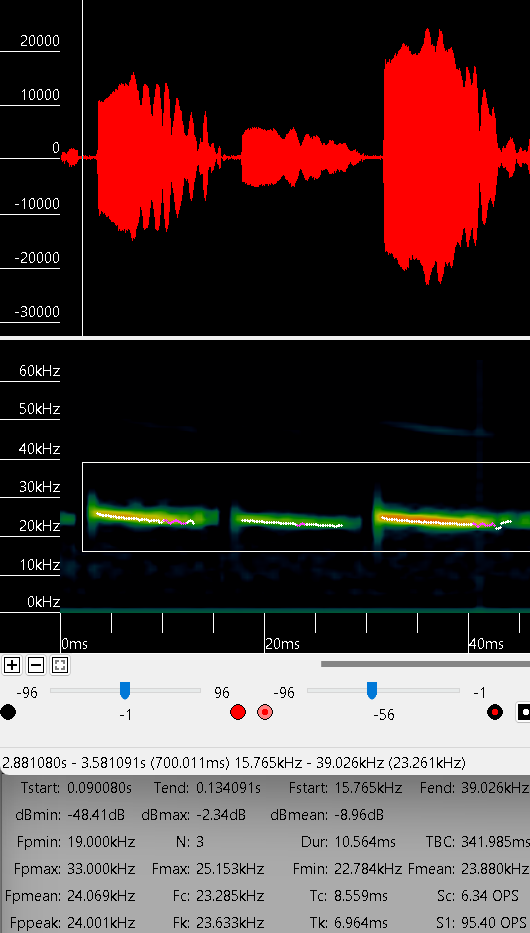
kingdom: Animalia
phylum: Chordata
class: Mammalia
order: Chiroptera
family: Molossidae
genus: Tadarida
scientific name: Tadarida brasiliensis
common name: Mexican free-tailed bat
